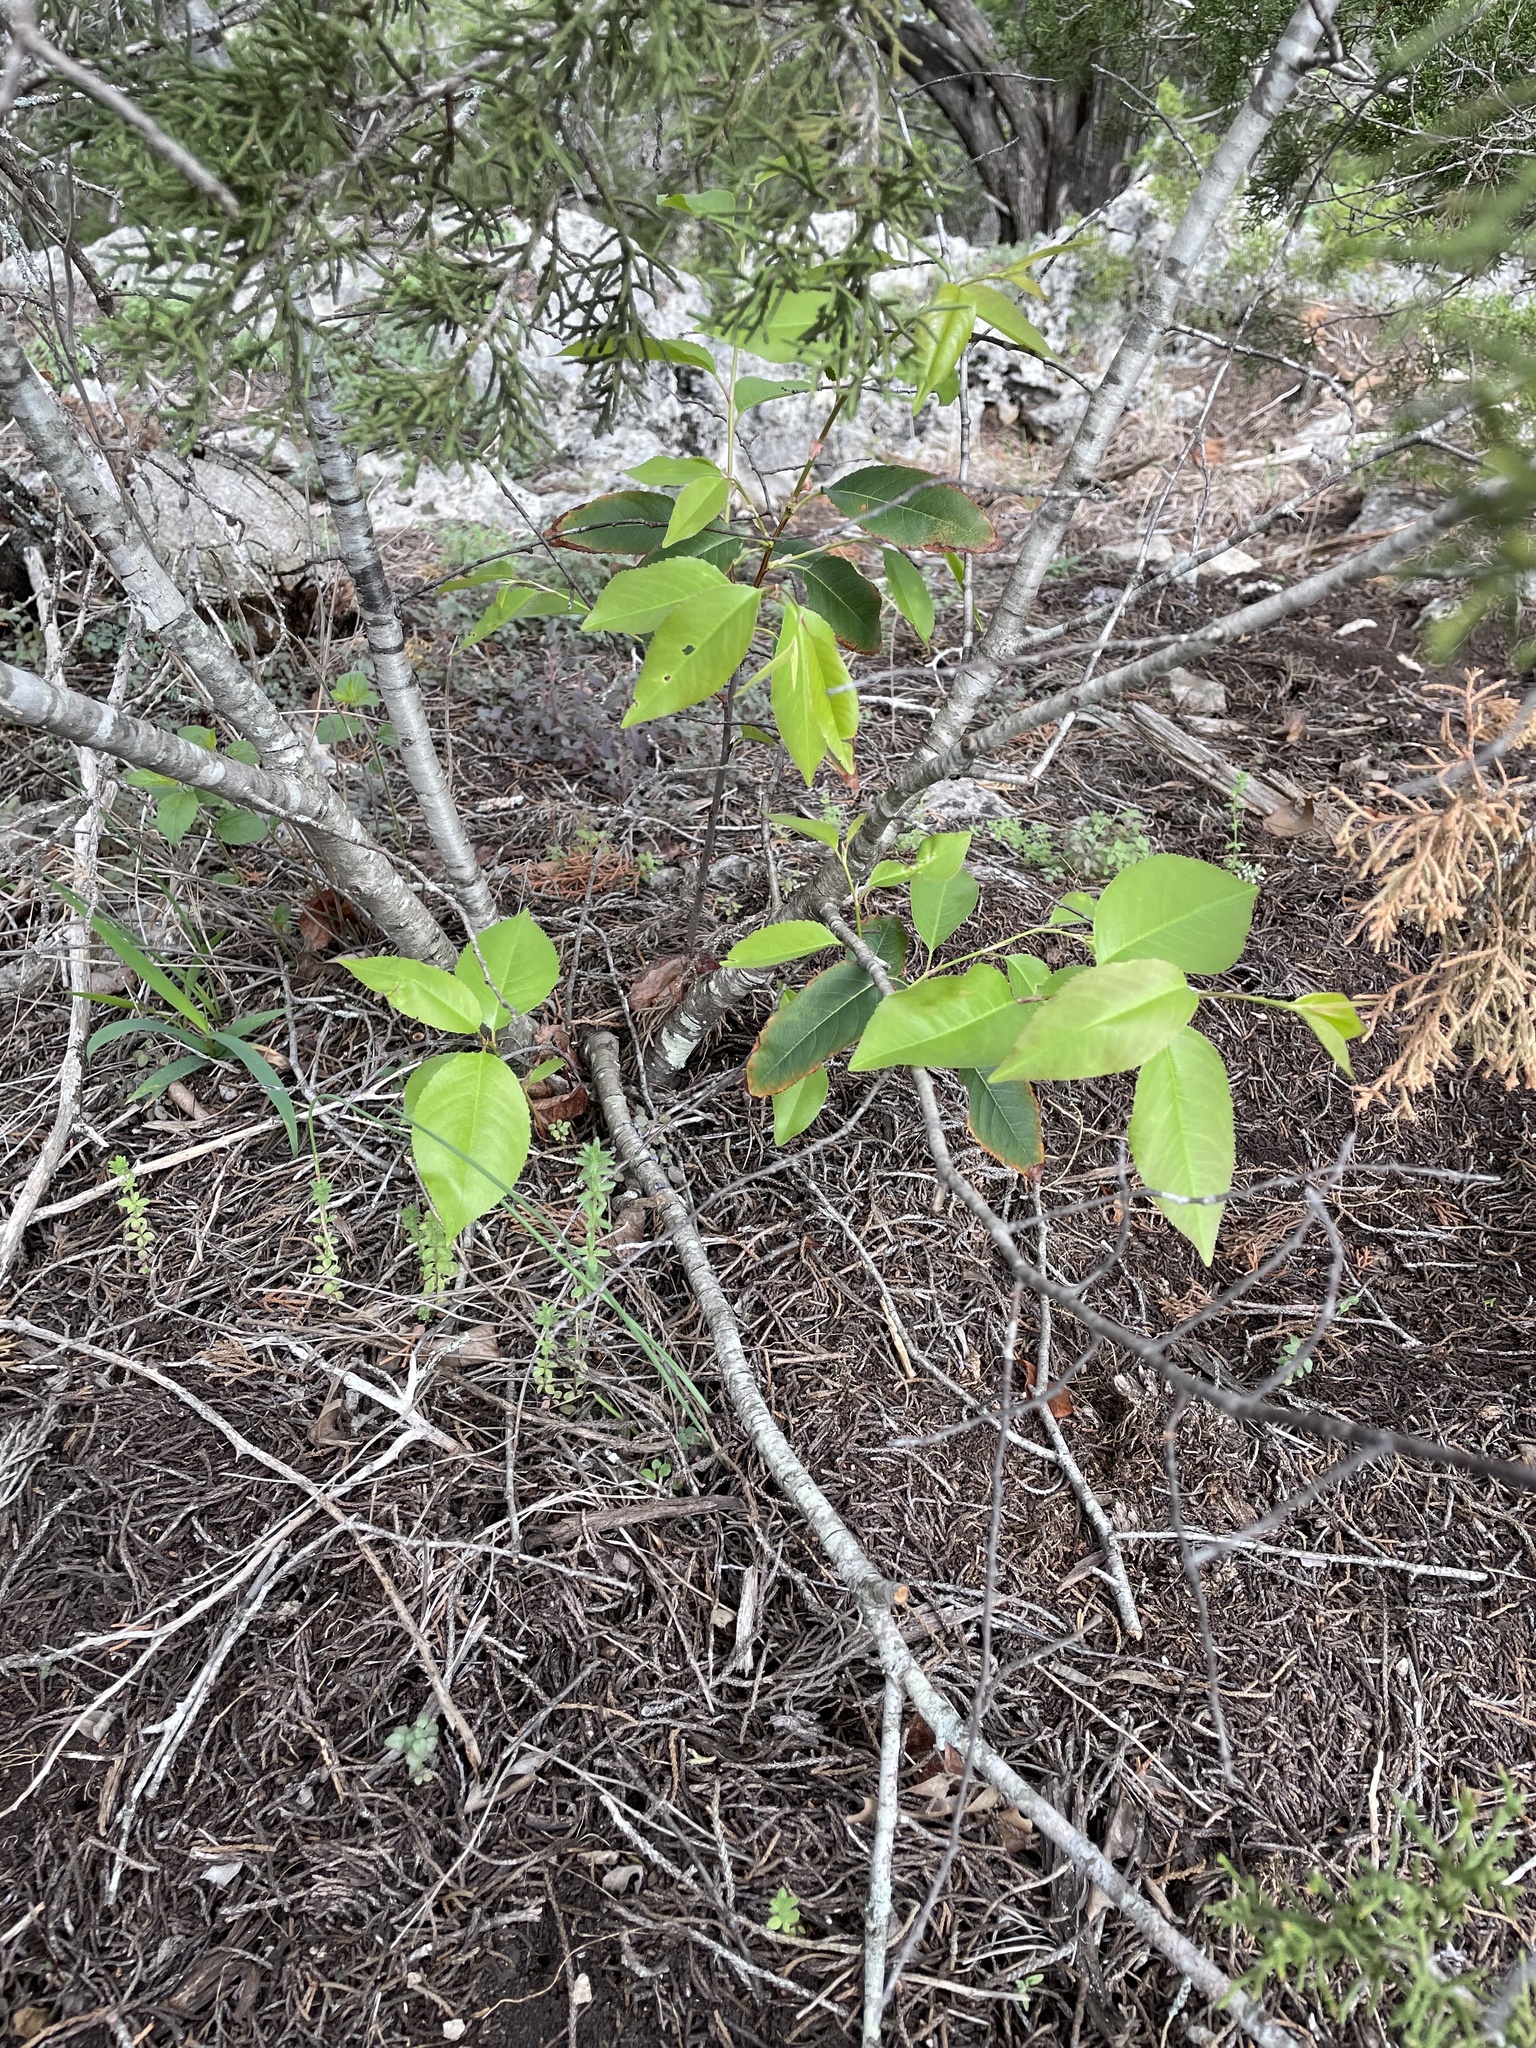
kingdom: Plantae
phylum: Tracheophyta
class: Magnoliopsida
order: Rosales
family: Rosaceae
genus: Prunus
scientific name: Prunus serotina
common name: Black cherry
